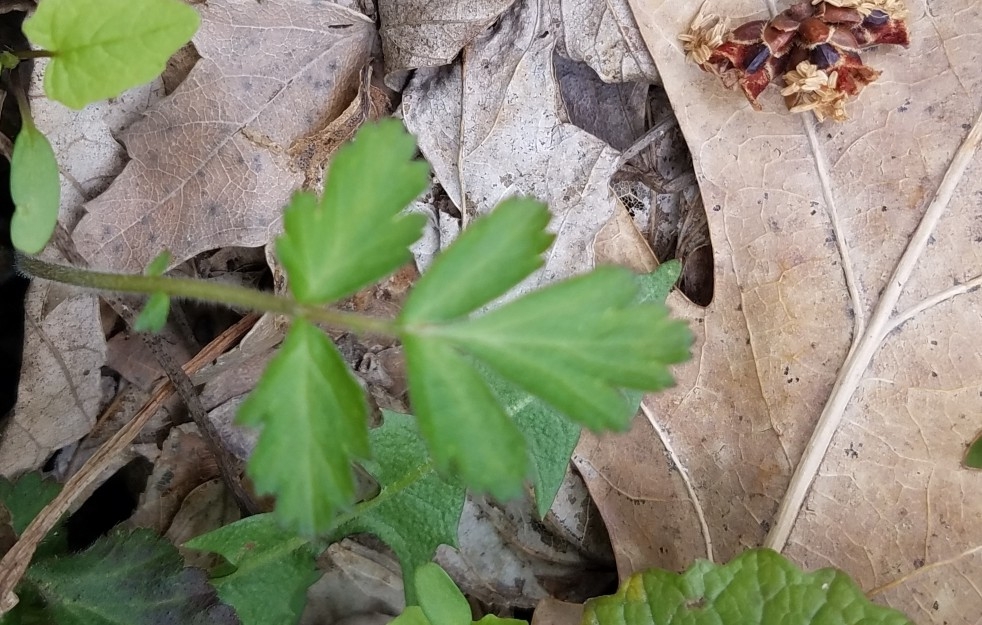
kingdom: Plantae
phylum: Tracheophyta
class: Magnoliopsida
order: Rosales
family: Rosaceae
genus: Geum
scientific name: Geum
